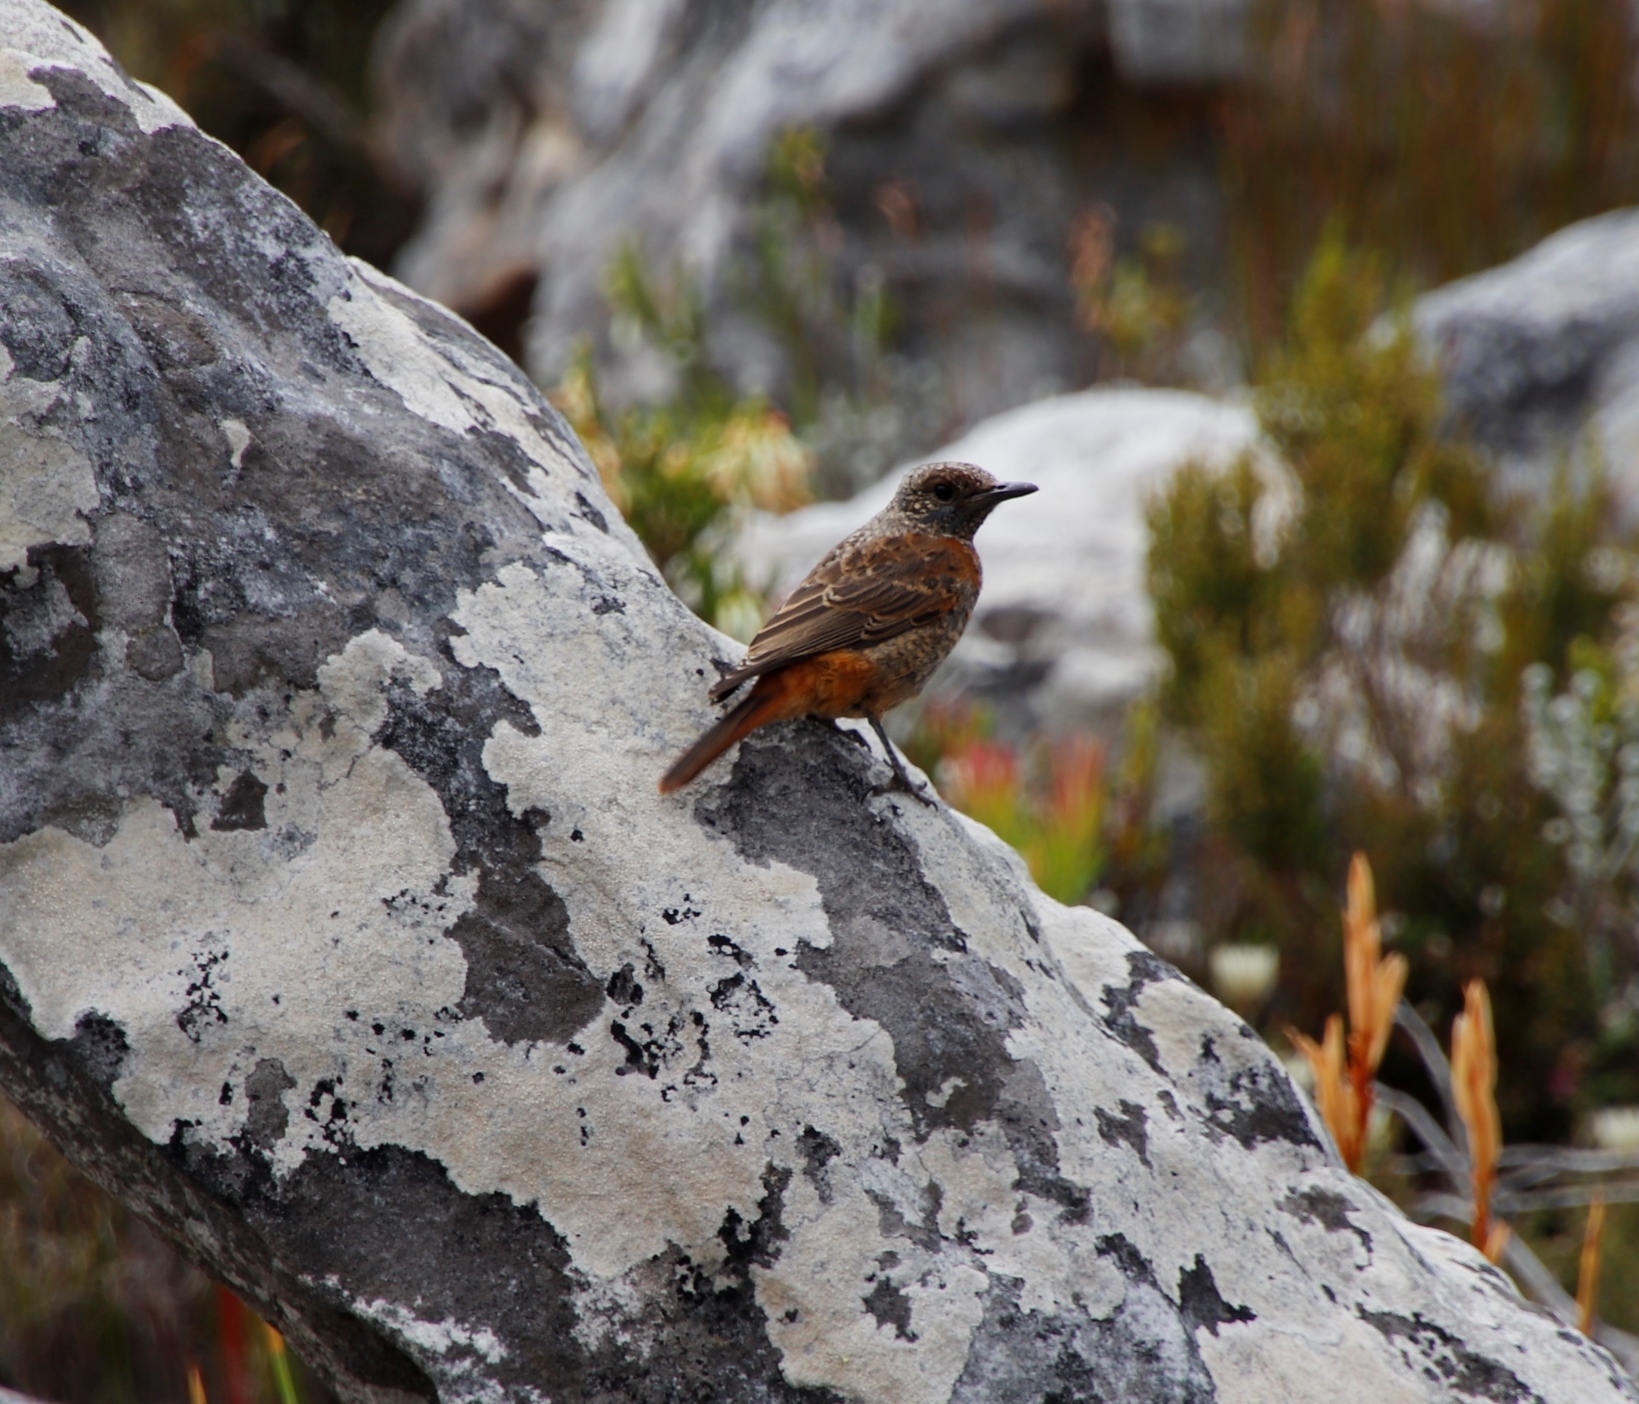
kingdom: Animalia
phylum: Chordata
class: Aves
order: Passeriformes
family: Muscicapidae
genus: Monticola
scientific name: Monticola rupestris
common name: Cape rock thrush
